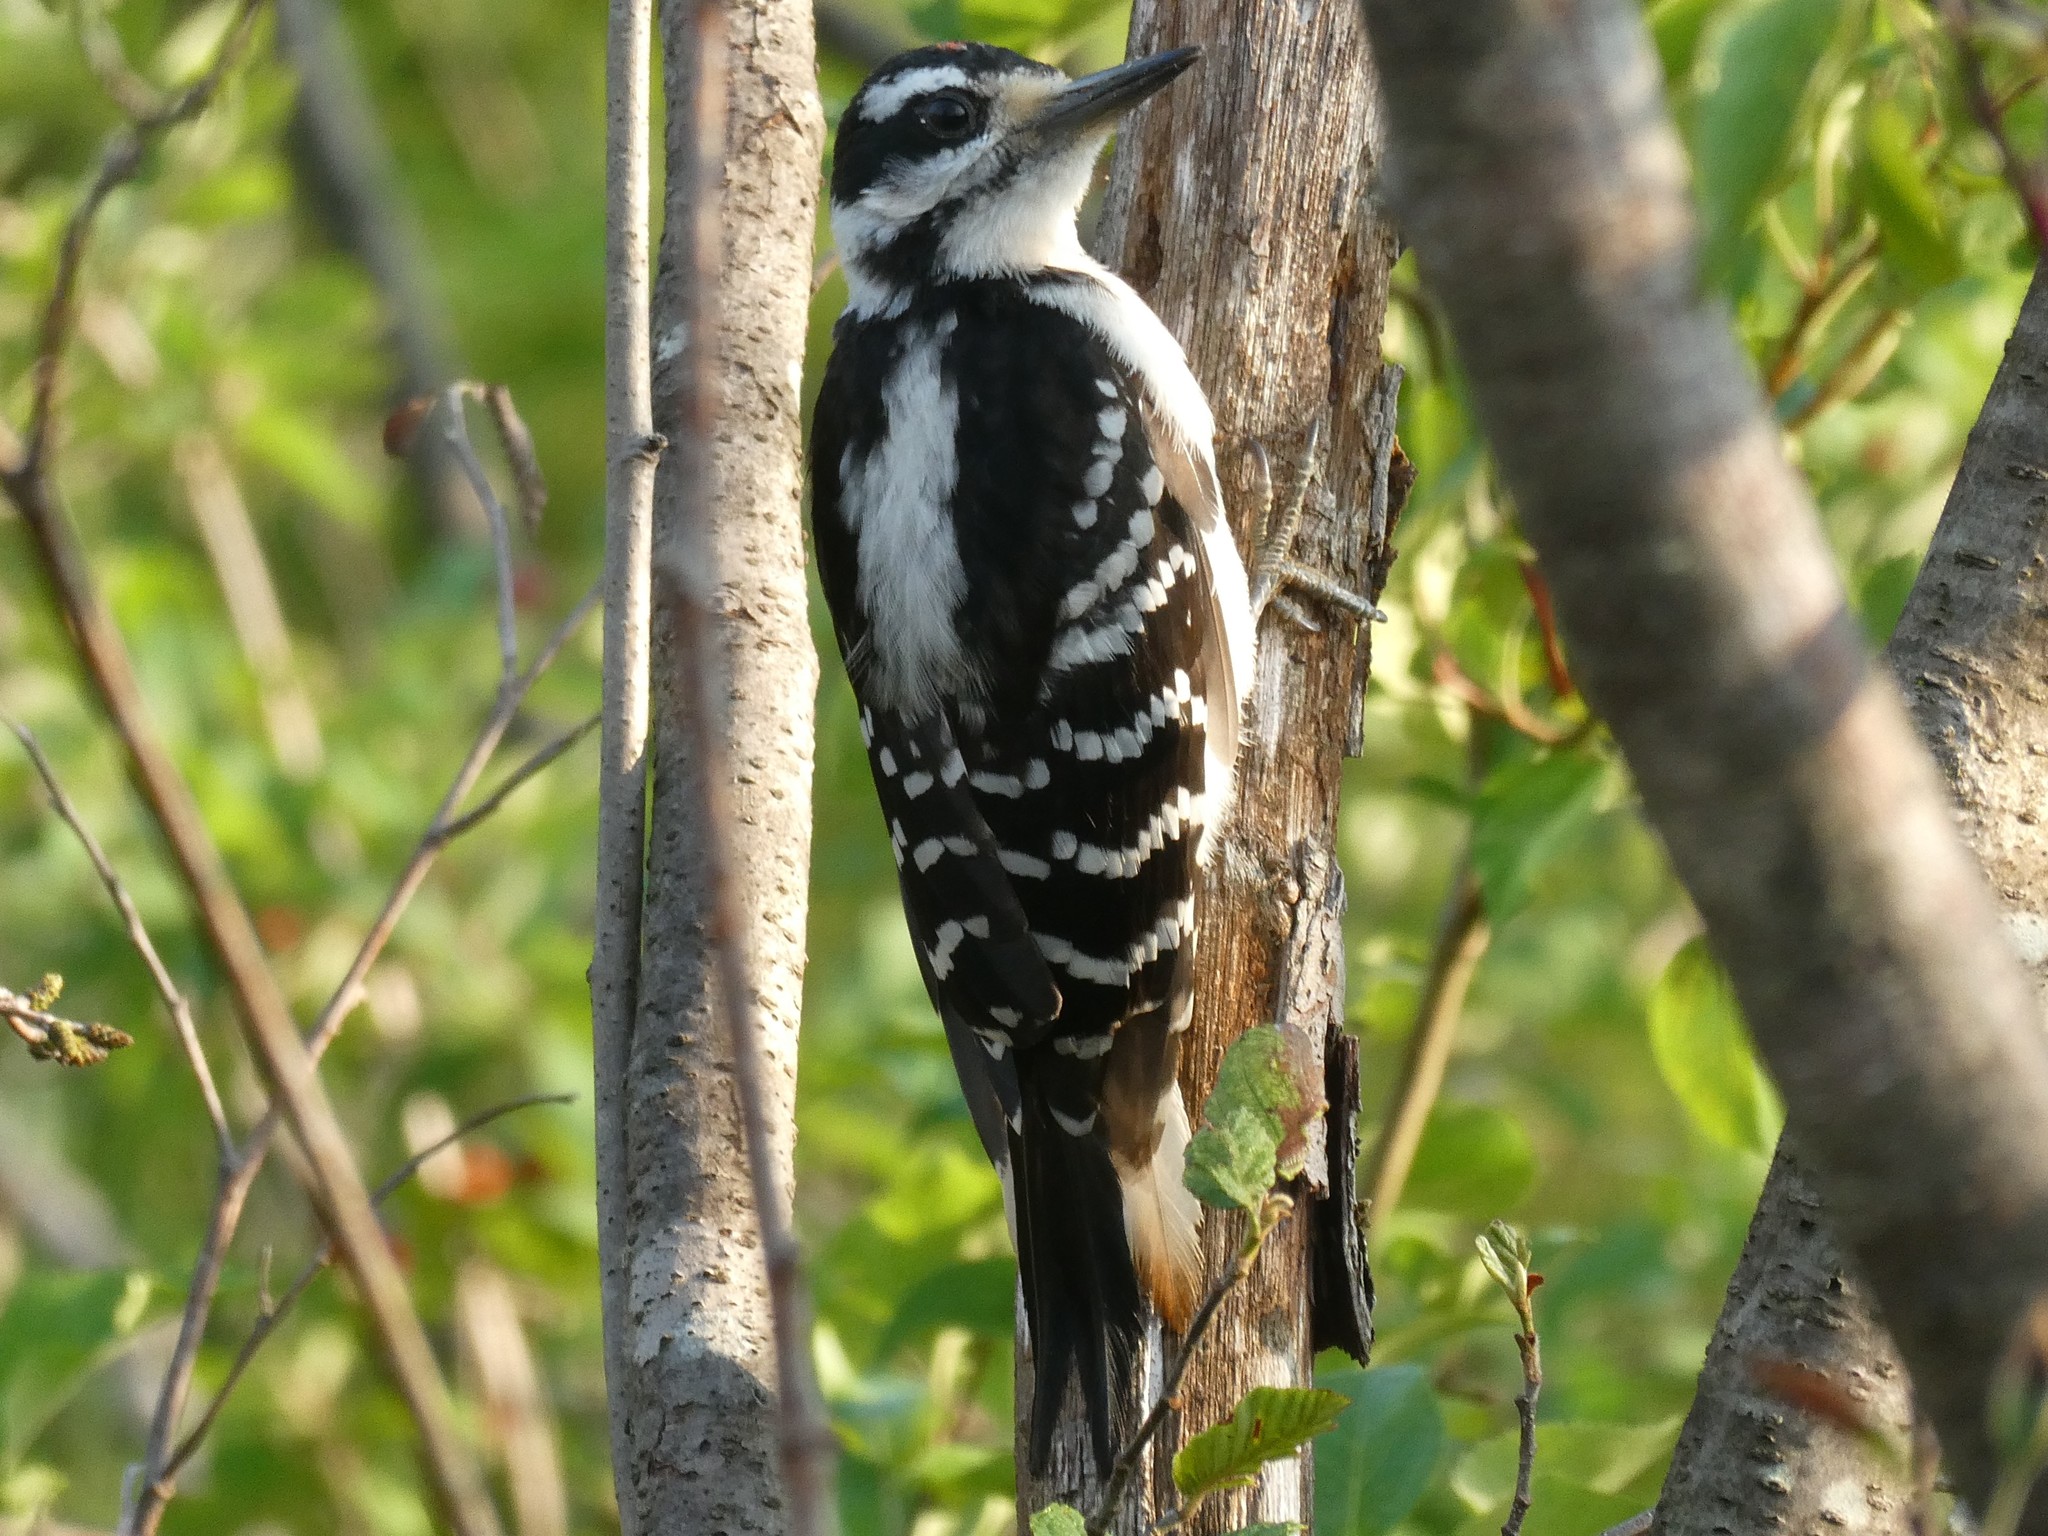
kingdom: Animalia
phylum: Chordata
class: Aves
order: Piciformes
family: Picidae
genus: Leuconotopicus
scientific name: Leuconotopicus villosus
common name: Hairy woodpecker
